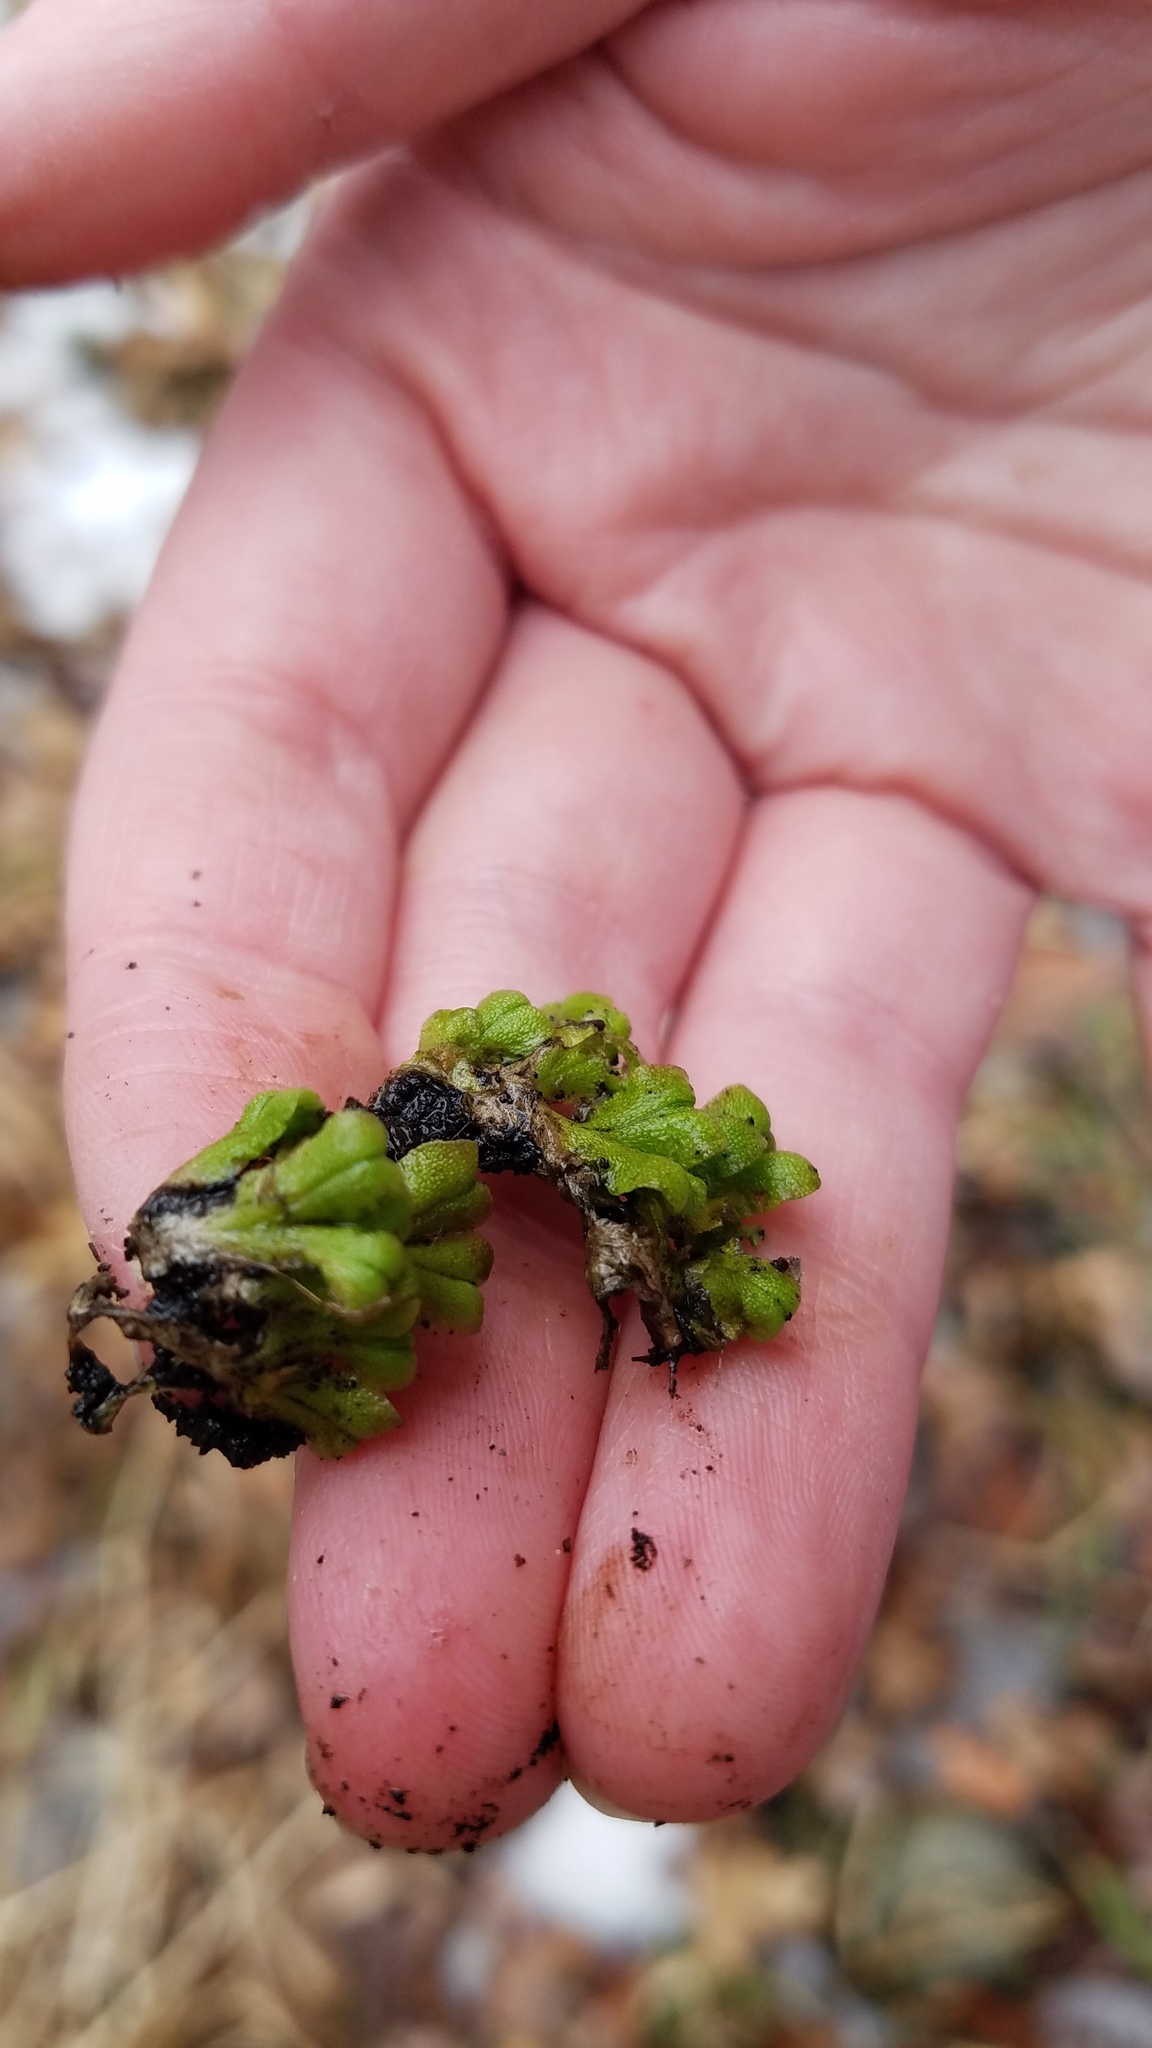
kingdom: Plantae
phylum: Marchantiophyta
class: Marchantiopsida
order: Marchantiales
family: Ricciaceae
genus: Ricciocarpos
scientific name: Ricciocarpos natans
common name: Purple-fringed liverwort
